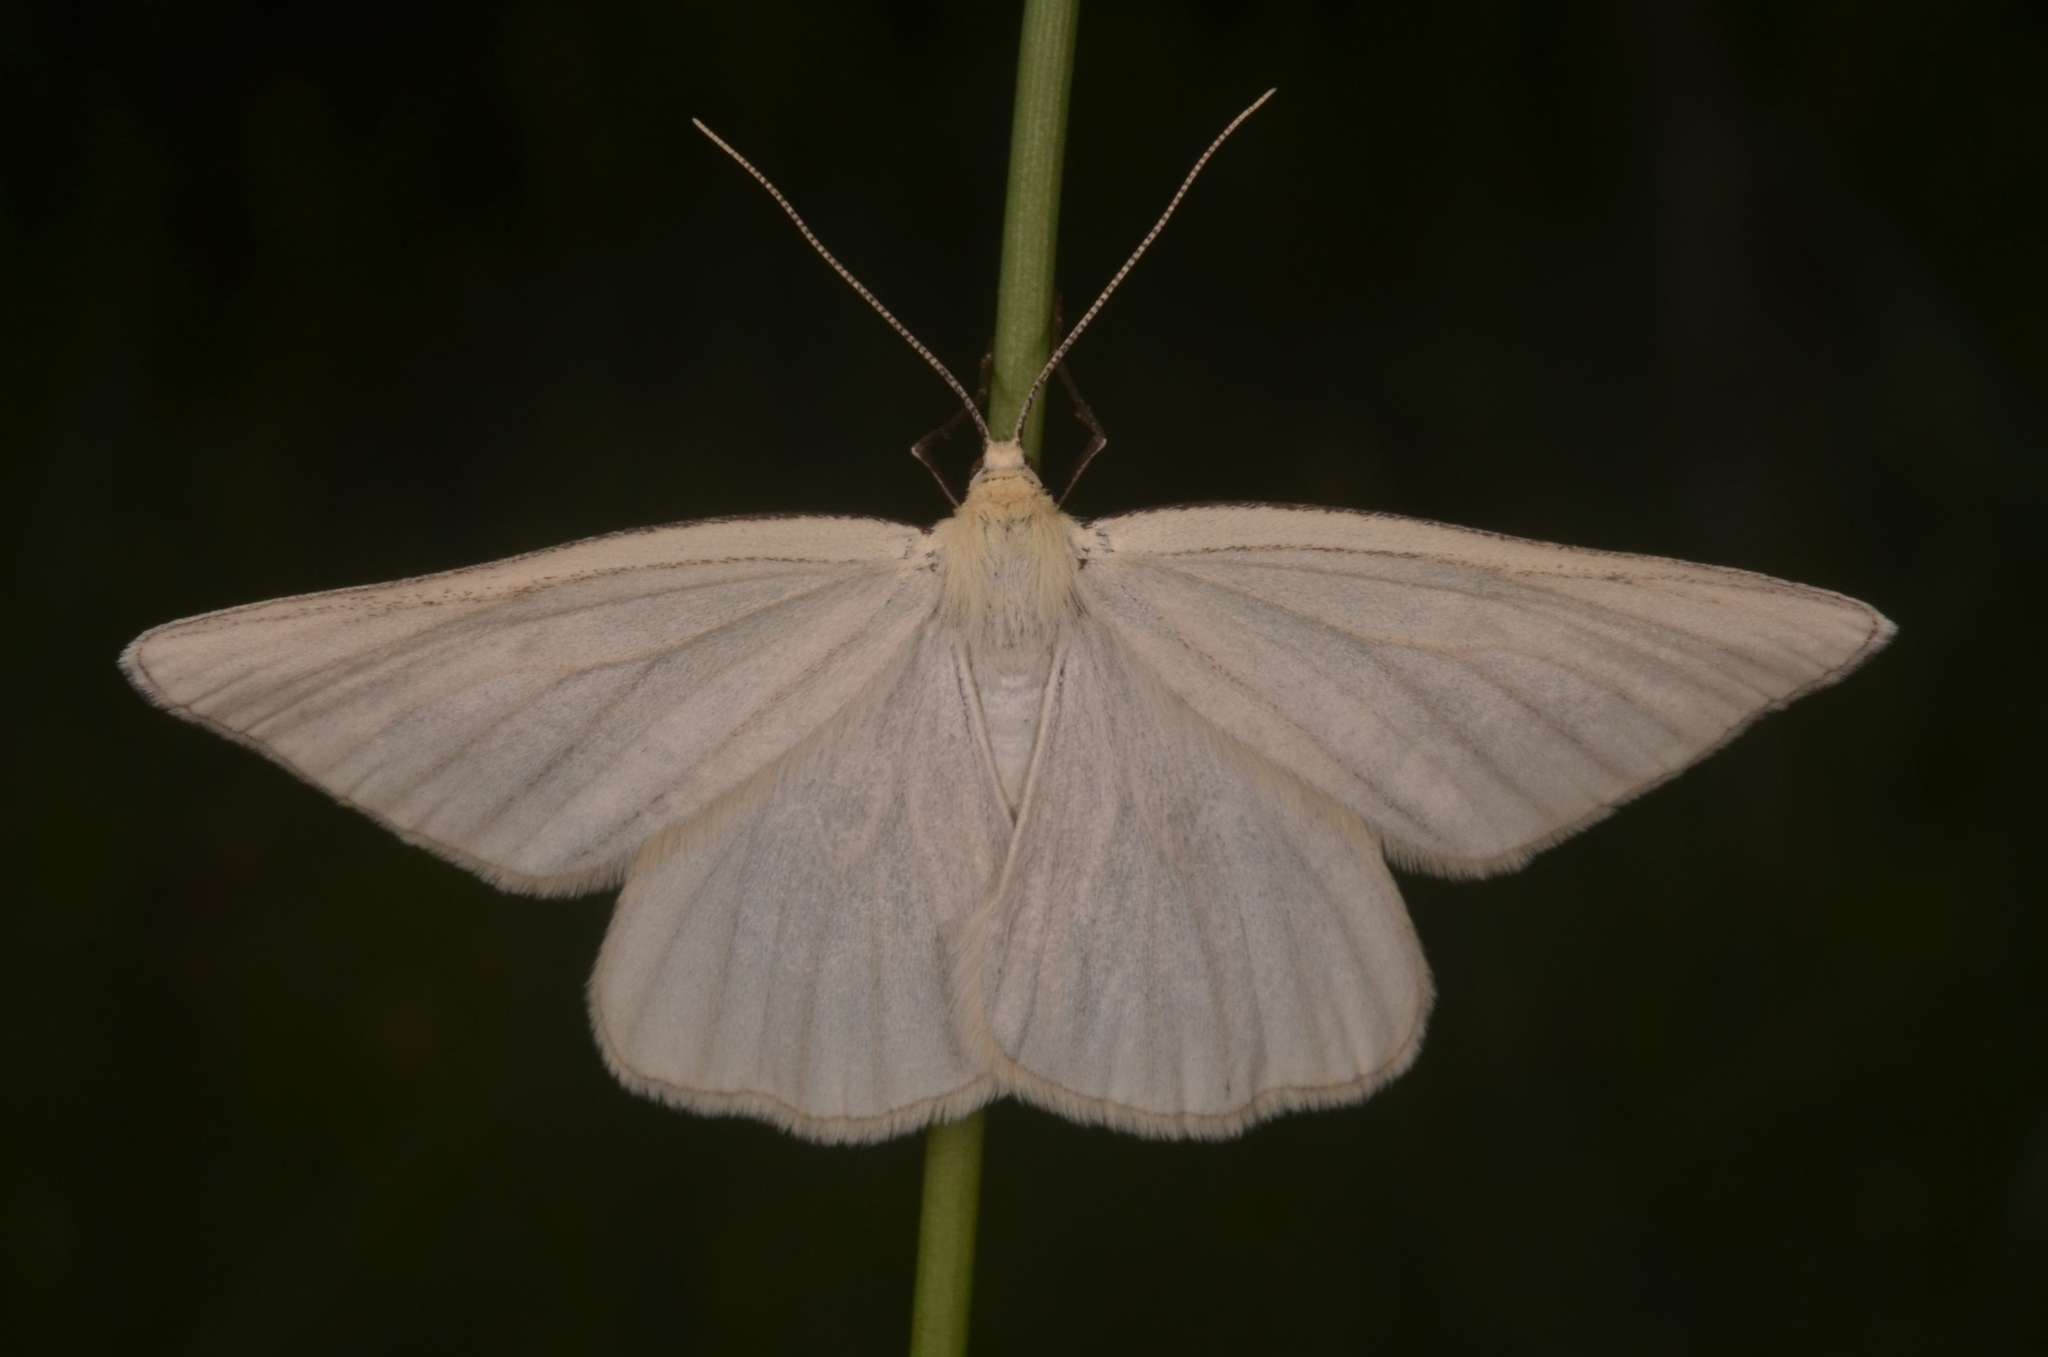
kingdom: Animalia
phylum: Arthropoda
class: Insecta
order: Lepidoptera
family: Geometridae
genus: Siona
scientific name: Siona lineata
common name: Black-veined moth
